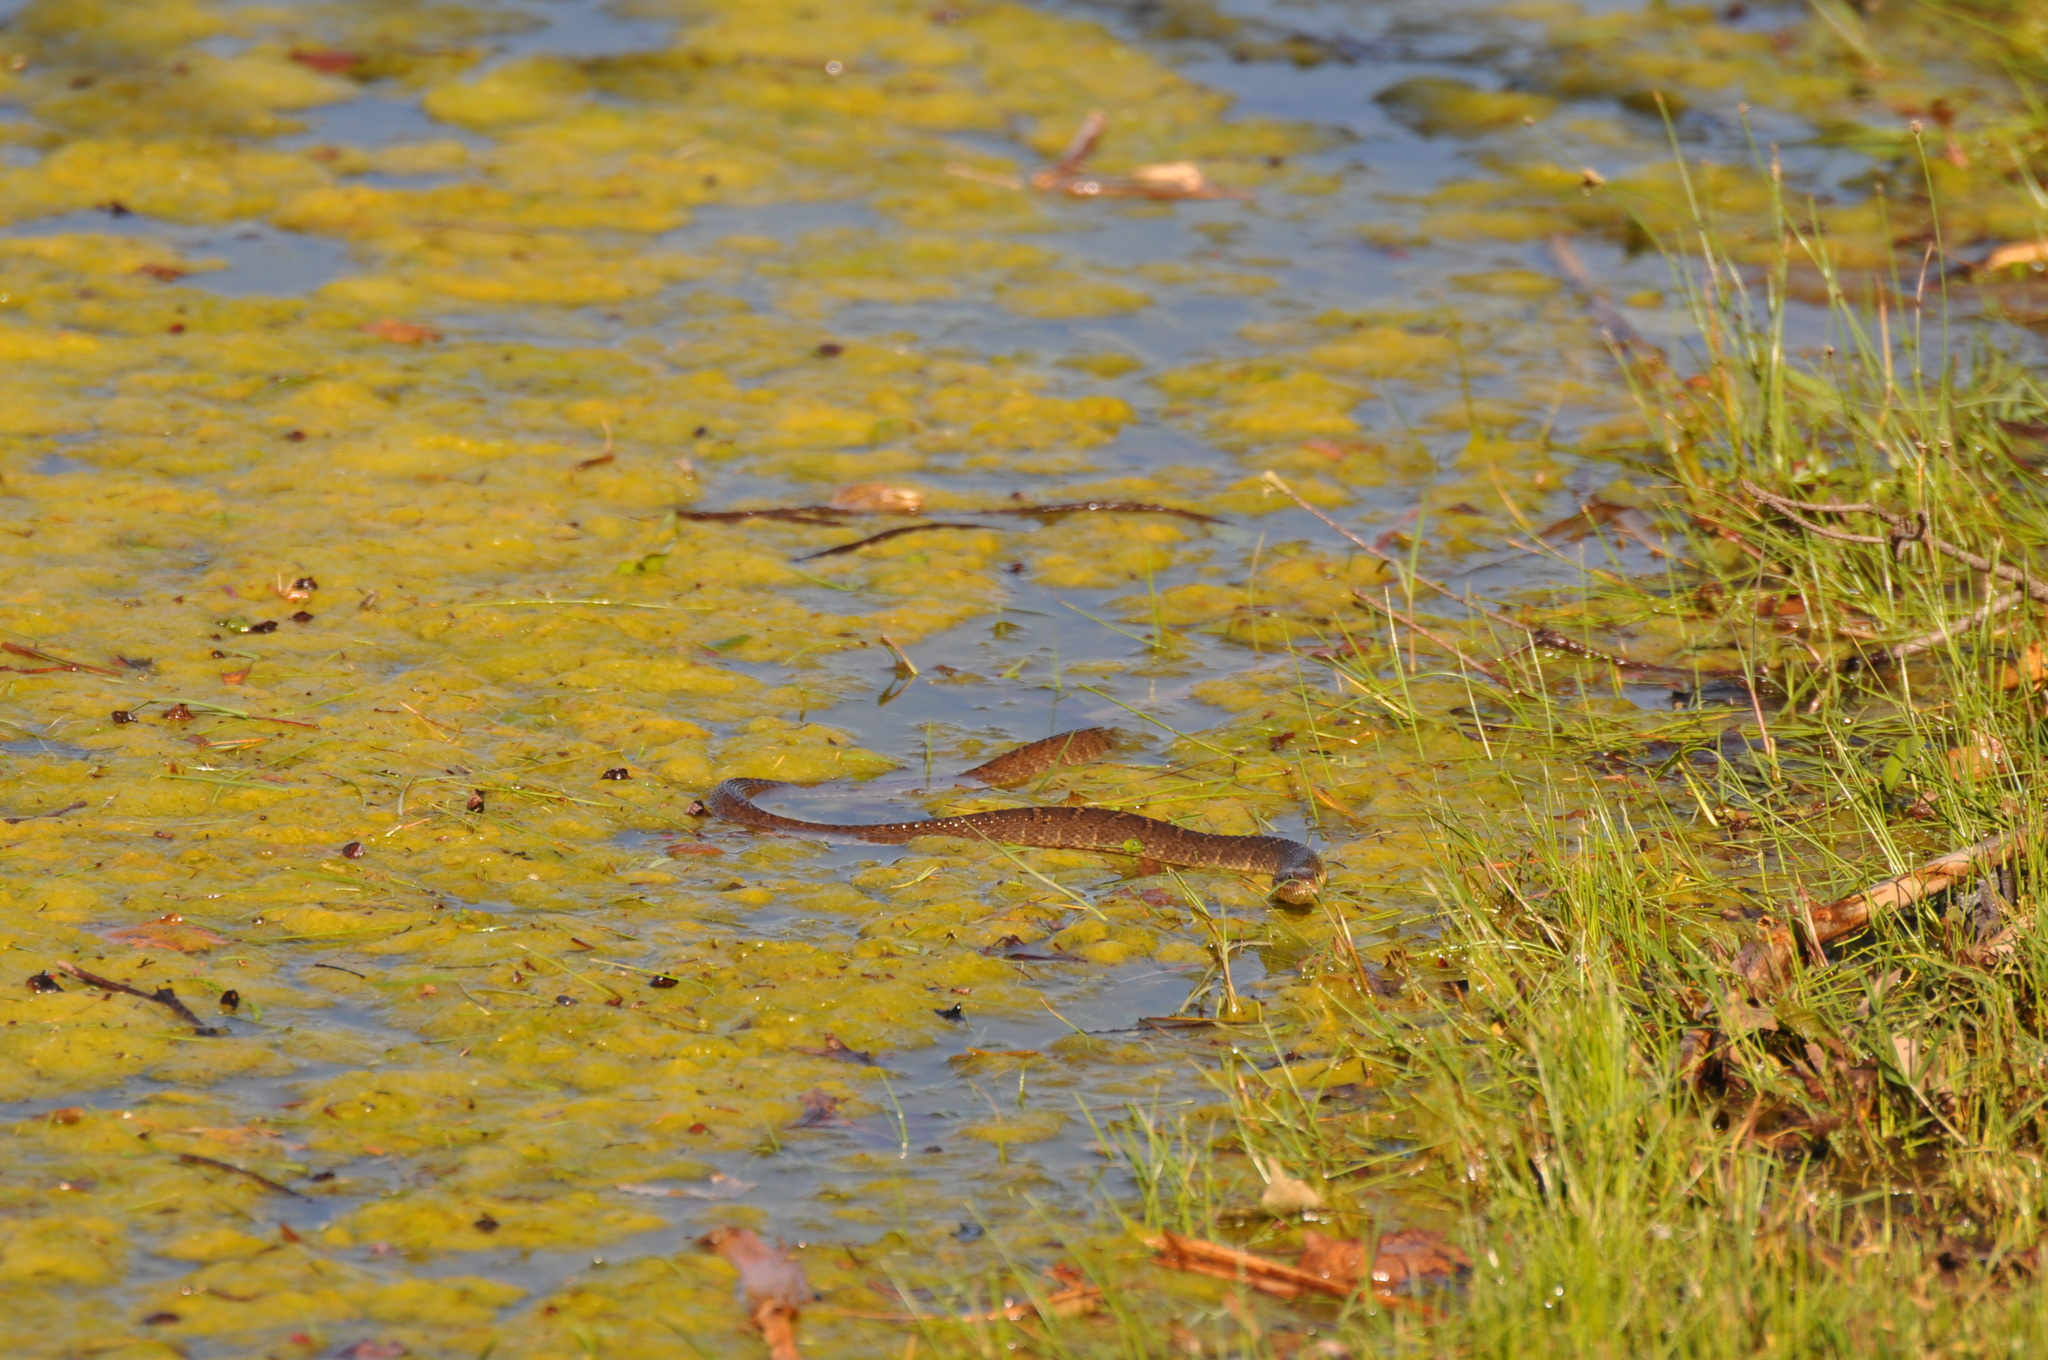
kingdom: Animalia
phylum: Chordata
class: Squamata
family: Colubridae
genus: Nerodia
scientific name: Nerodia erythrogaster
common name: Plainbelly water snake
